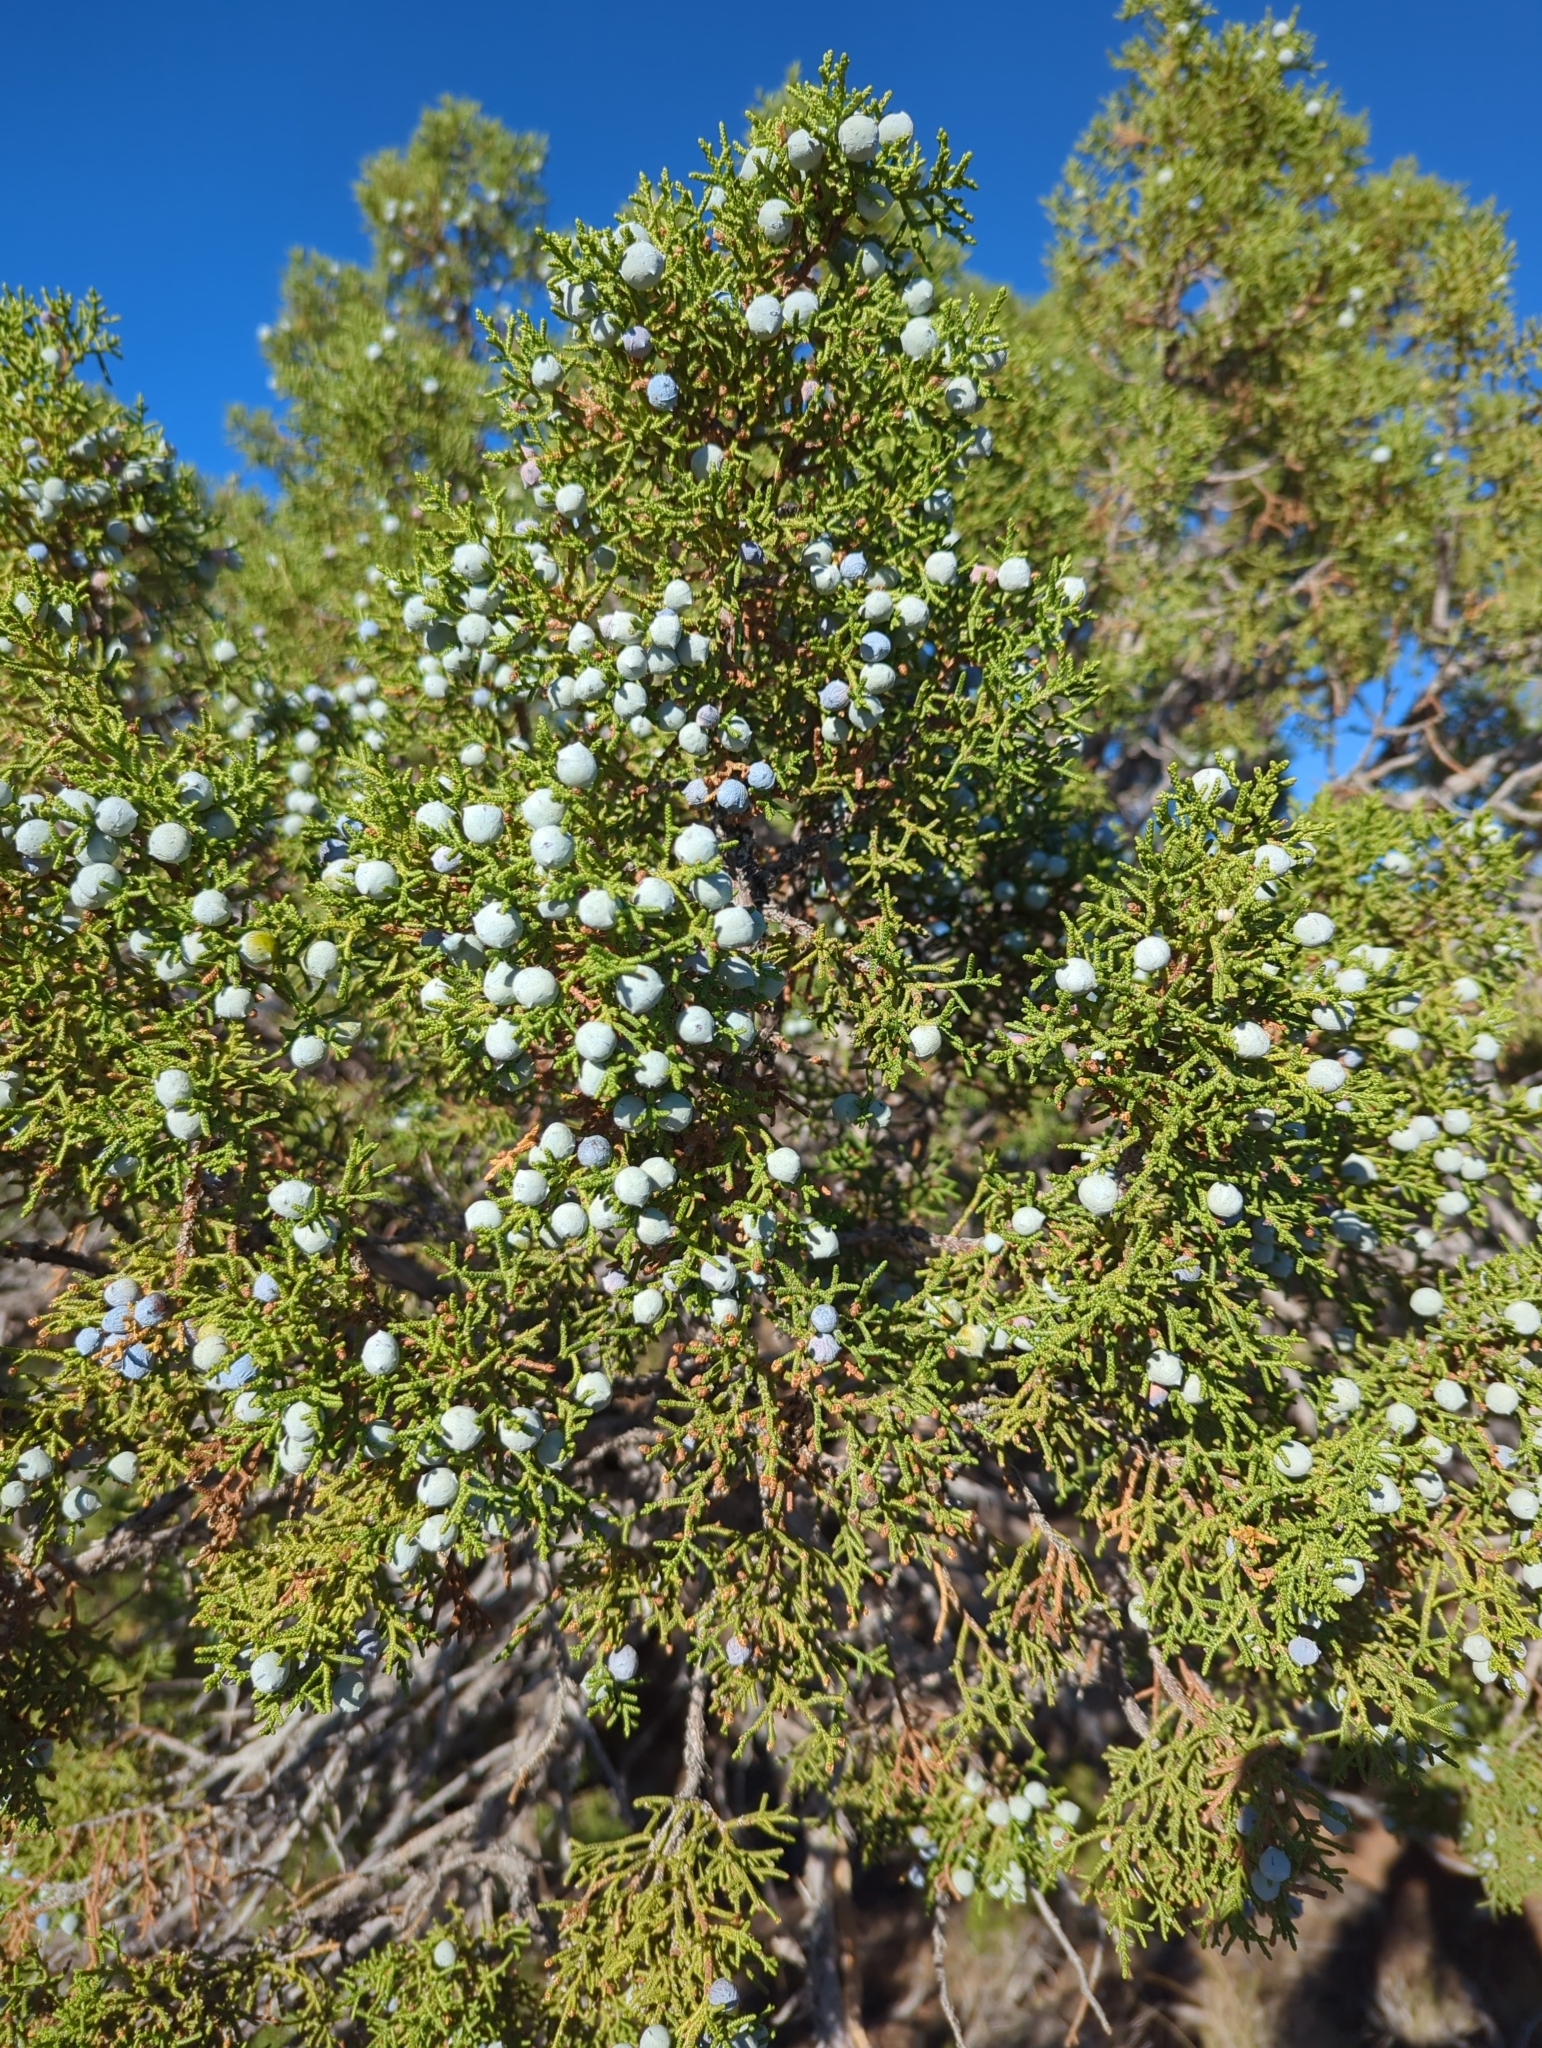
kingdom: Plantae
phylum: Tracheophyta
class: Pinopsida
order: Pinales
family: Cupressaceae
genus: Juniperus
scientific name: Juniperus osteosperma
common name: Utah juniper
